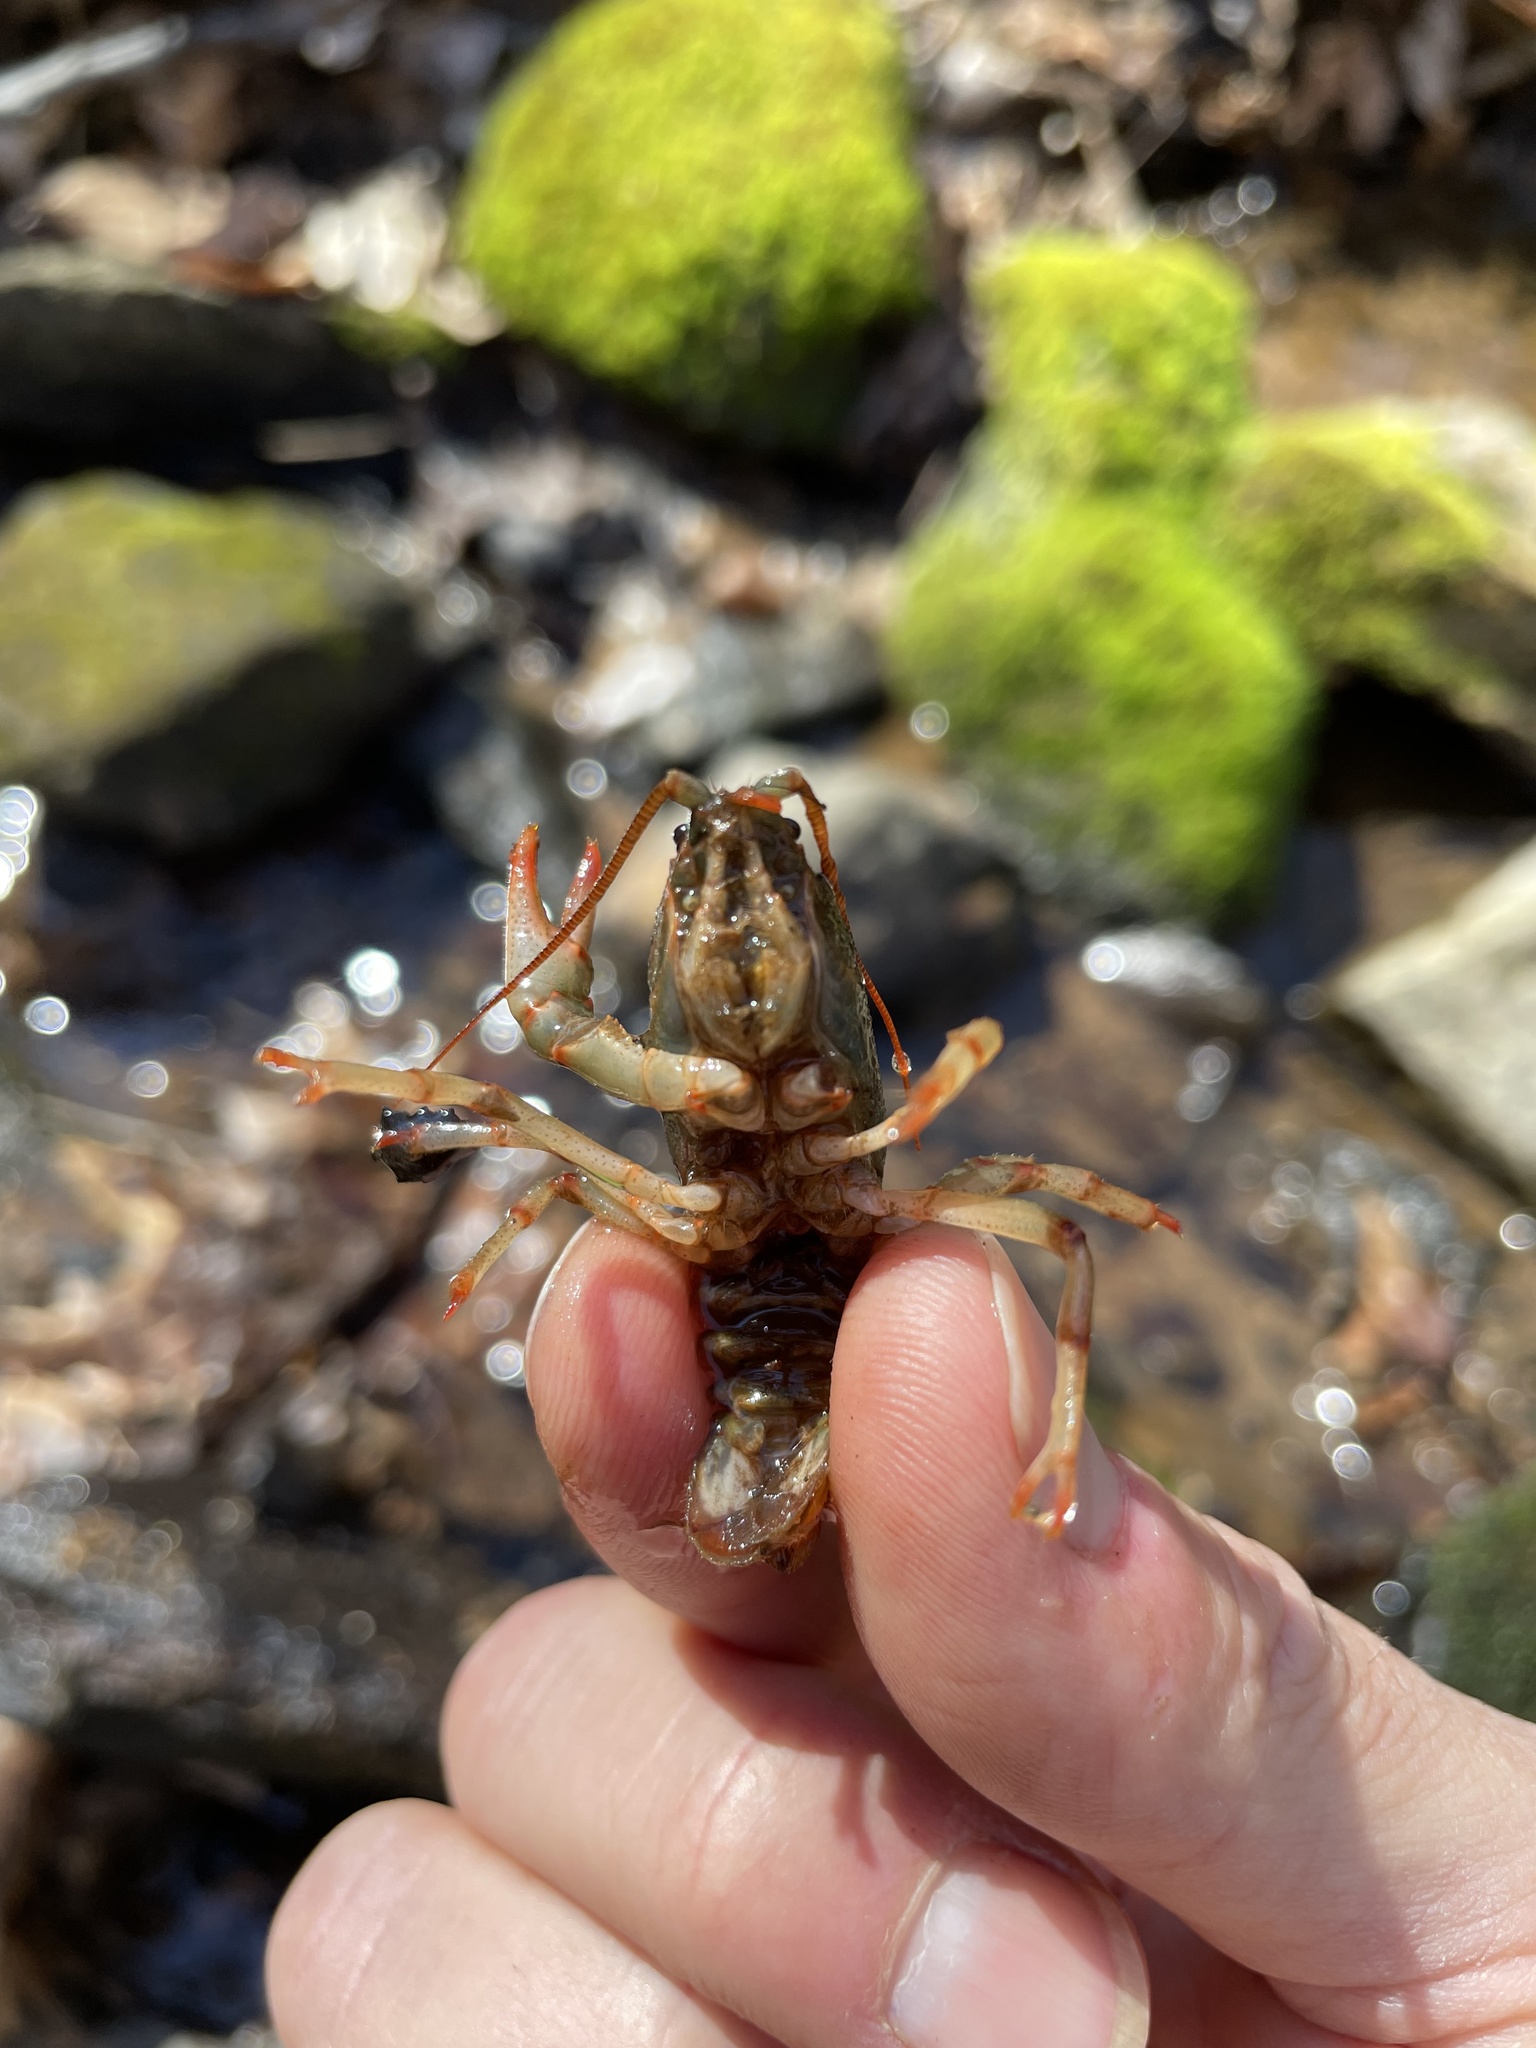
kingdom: Animalia
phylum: Arthropoda
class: Malacostraca
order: Decapoda
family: Cambaridae
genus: Cambarus
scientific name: Cambarus howardi
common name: Chattahoochee crayfish
